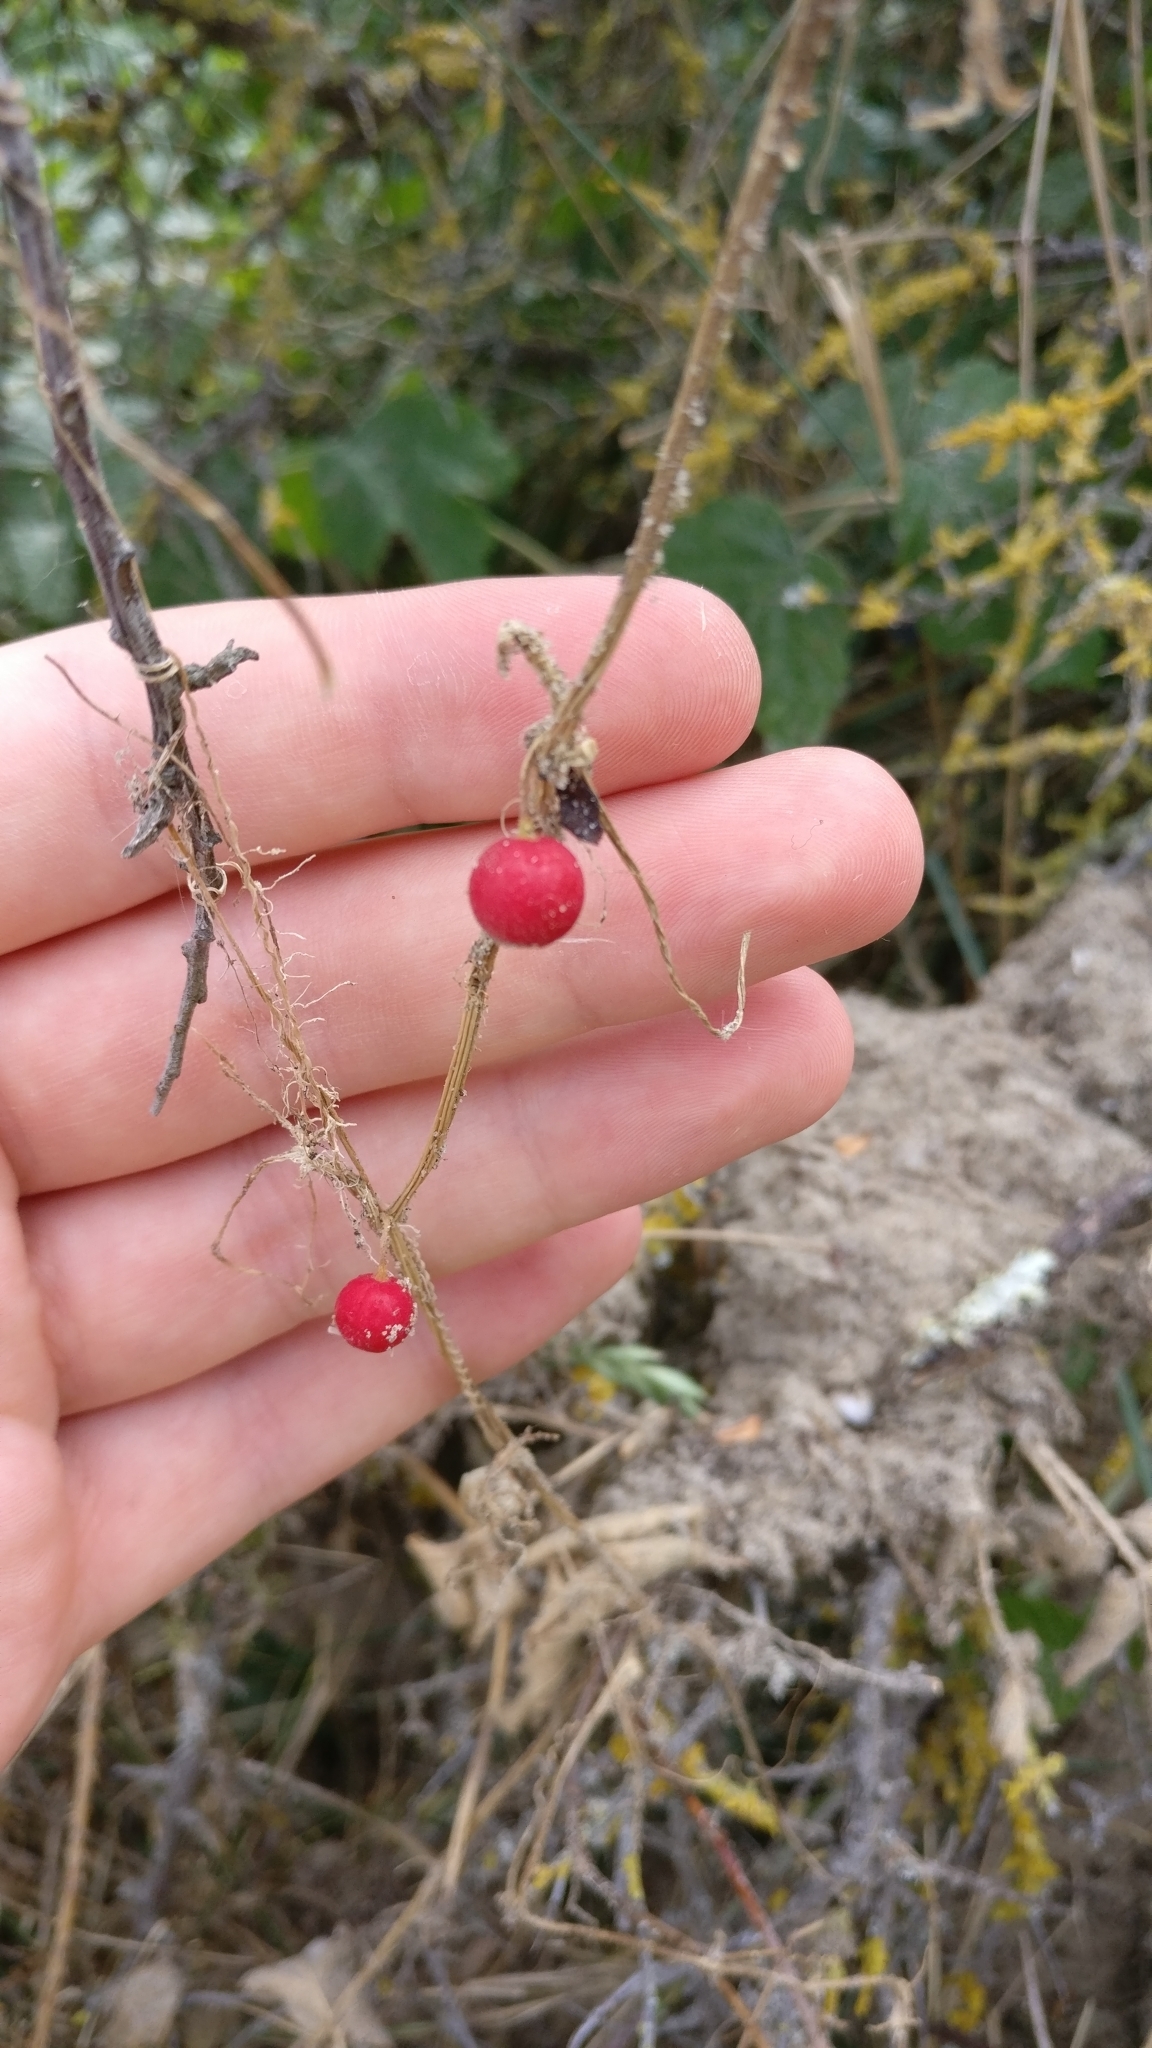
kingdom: Plantae
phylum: Tracheophyta
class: Magnoliopsida
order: Cucurbitales
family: Cucurbitaceae
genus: Bryonia
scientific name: Bryonia cretica
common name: Cretan bryony
